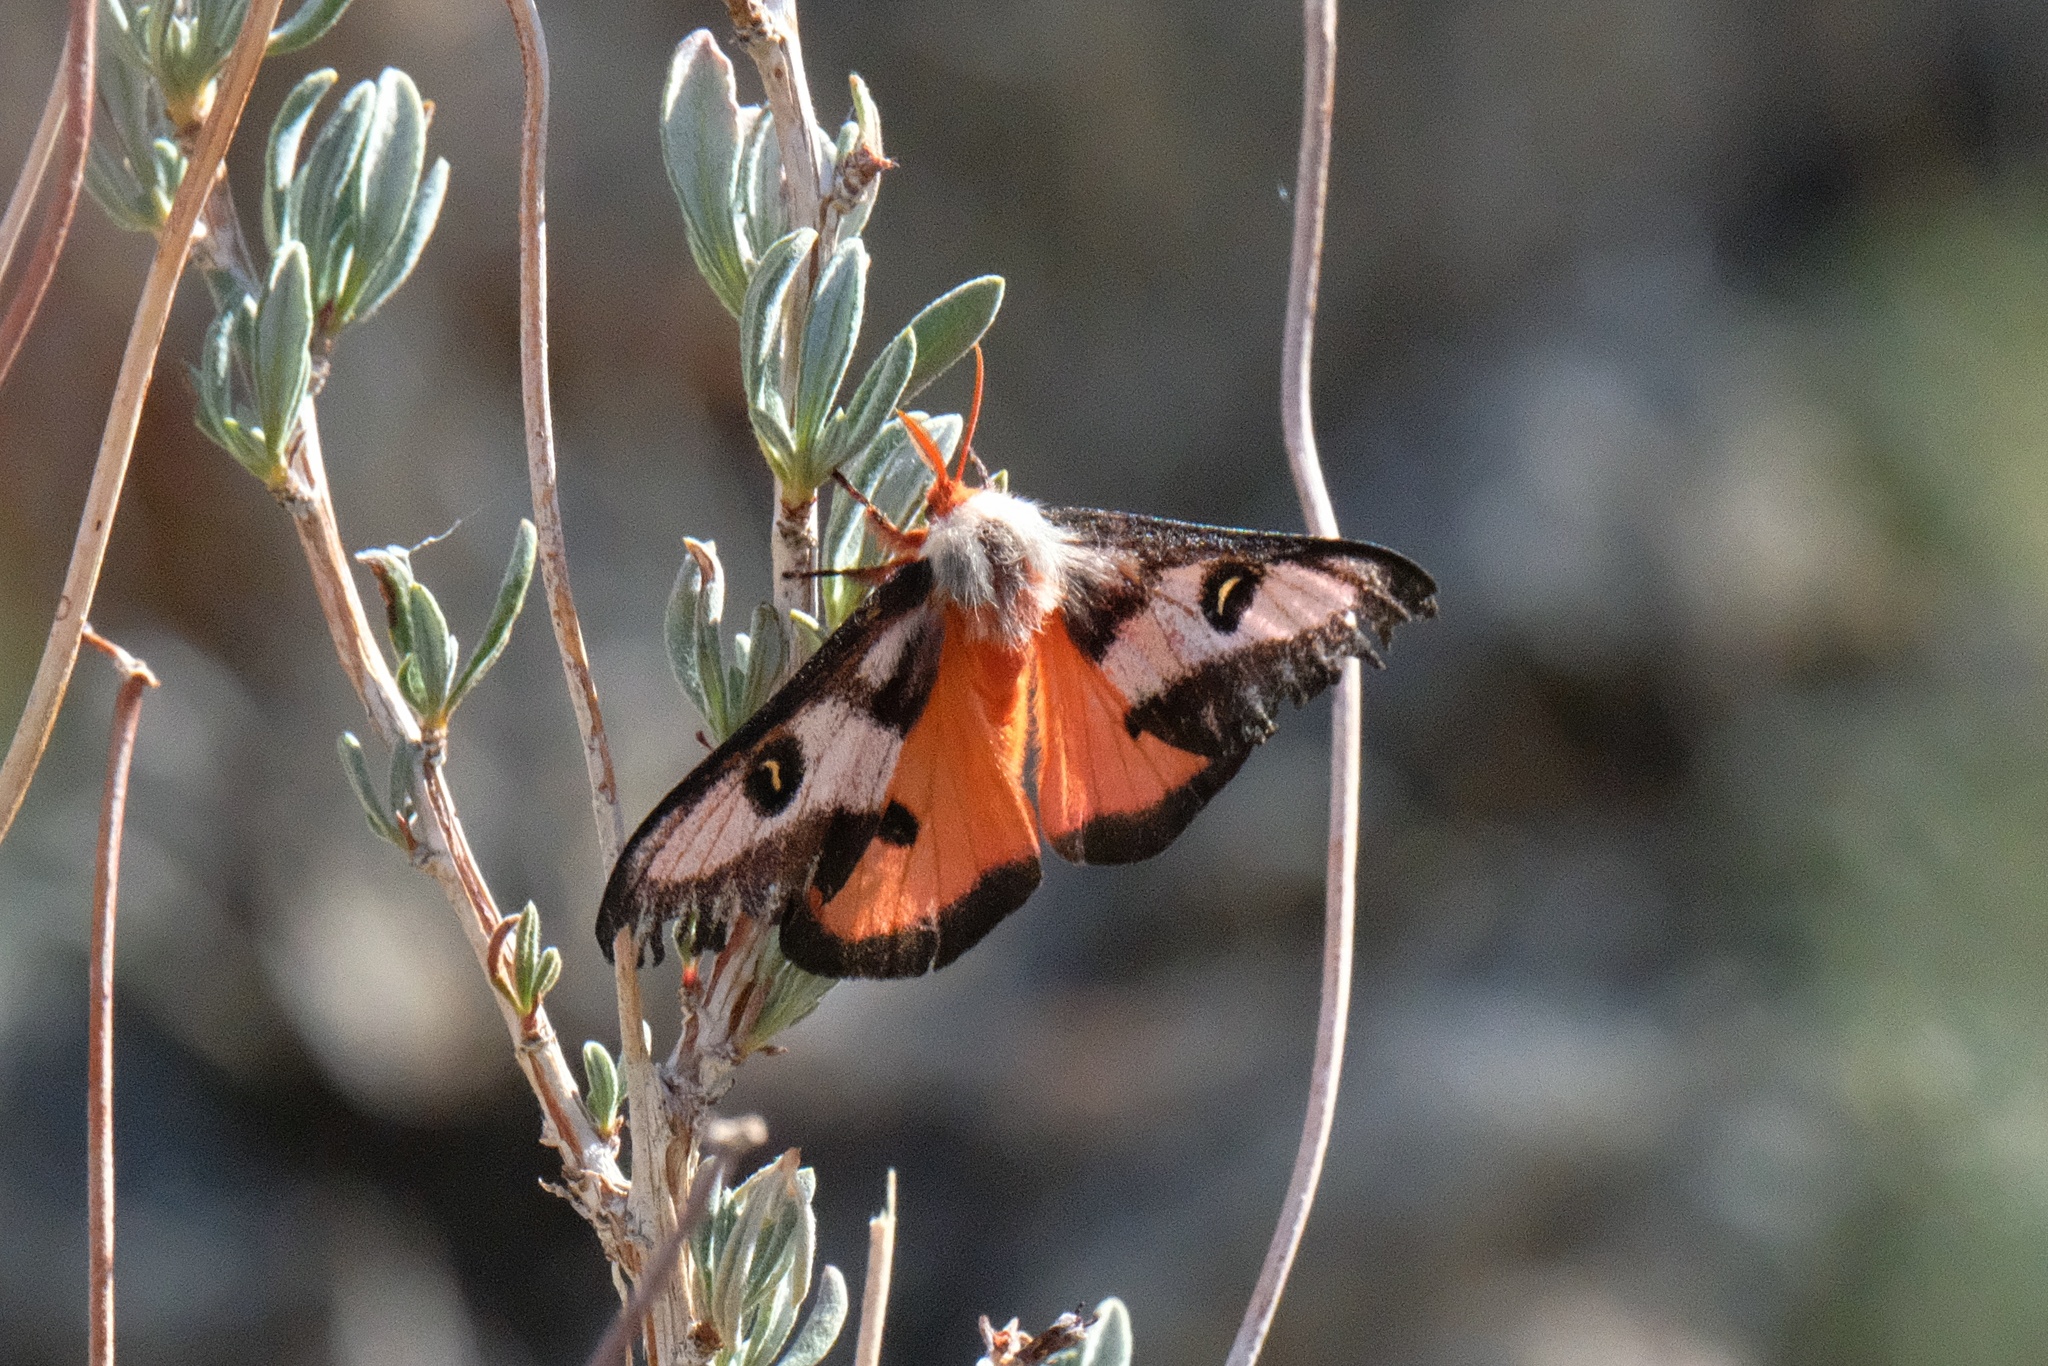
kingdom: Animalia
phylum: Arthropoda
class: Insecta
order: Lepidoptera
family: Saturniidae
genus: Hemileuca
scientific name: Hemileuca electra
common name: Electra buckmoth
